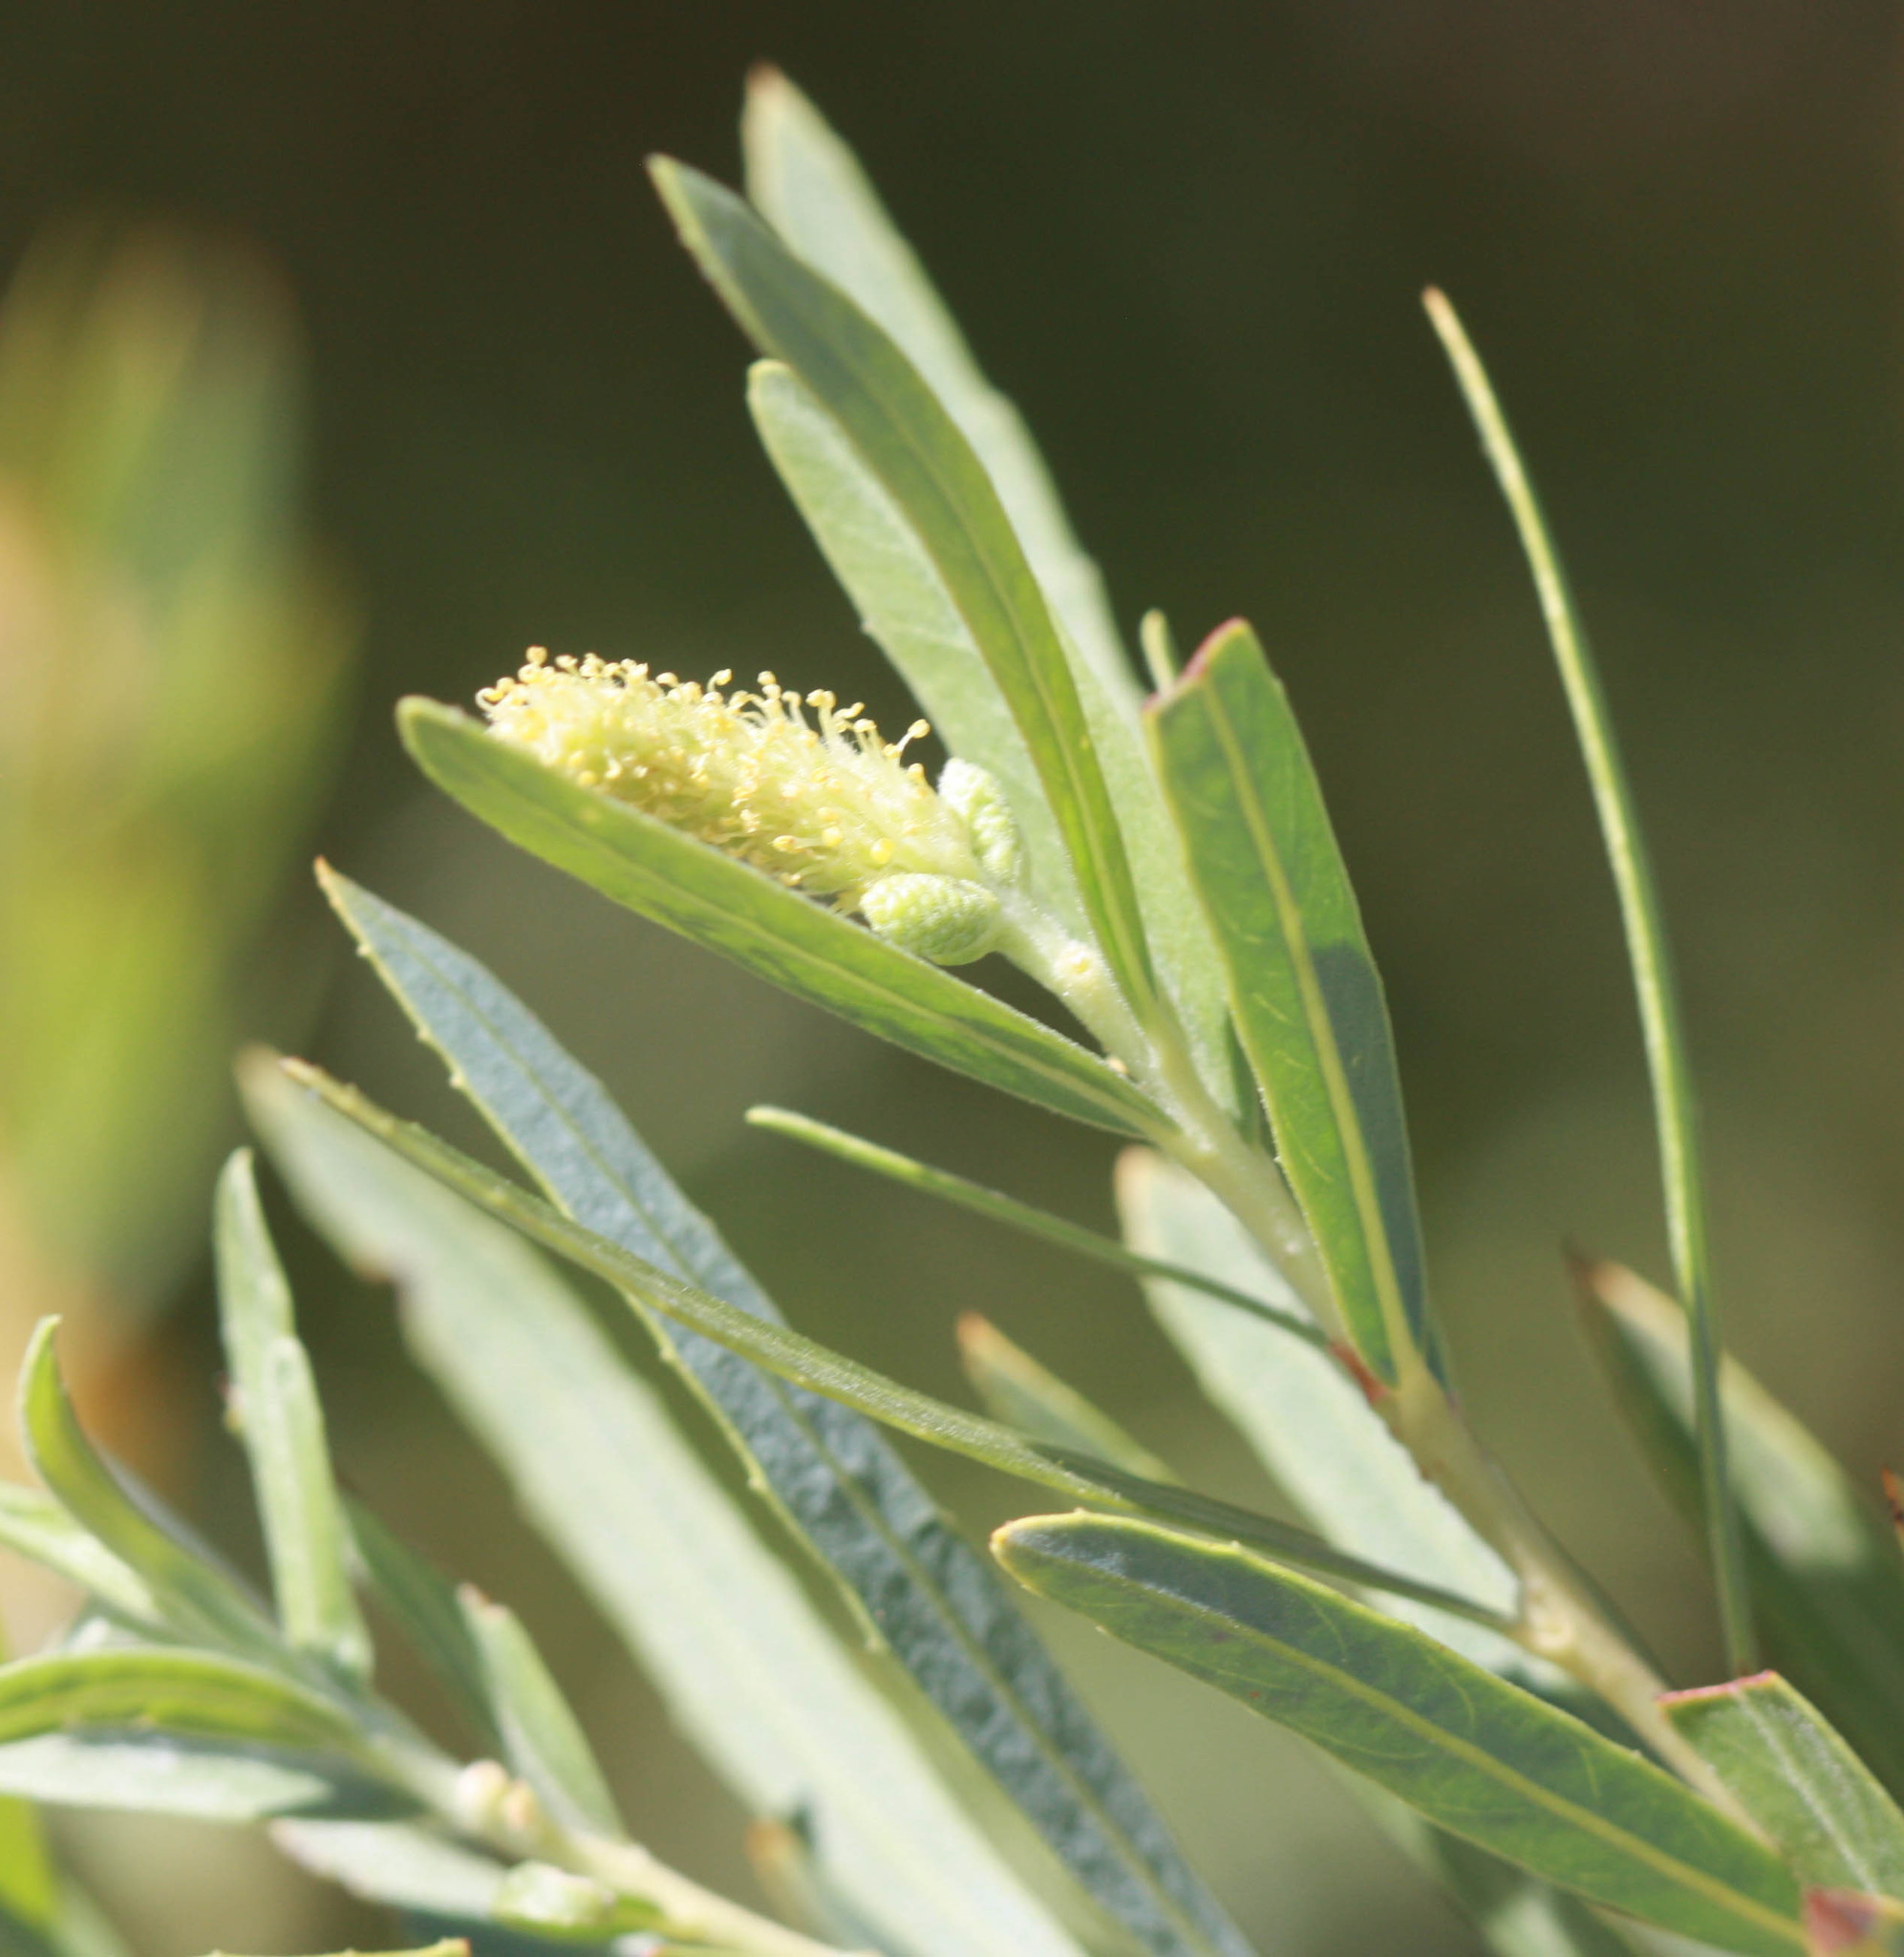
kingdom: Plantae
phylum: Tracheophyta
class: Magnoliopsida
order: Malpighiales
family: Salicaceae
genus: Salix
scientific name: Salix exigua
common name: Coyote willow
